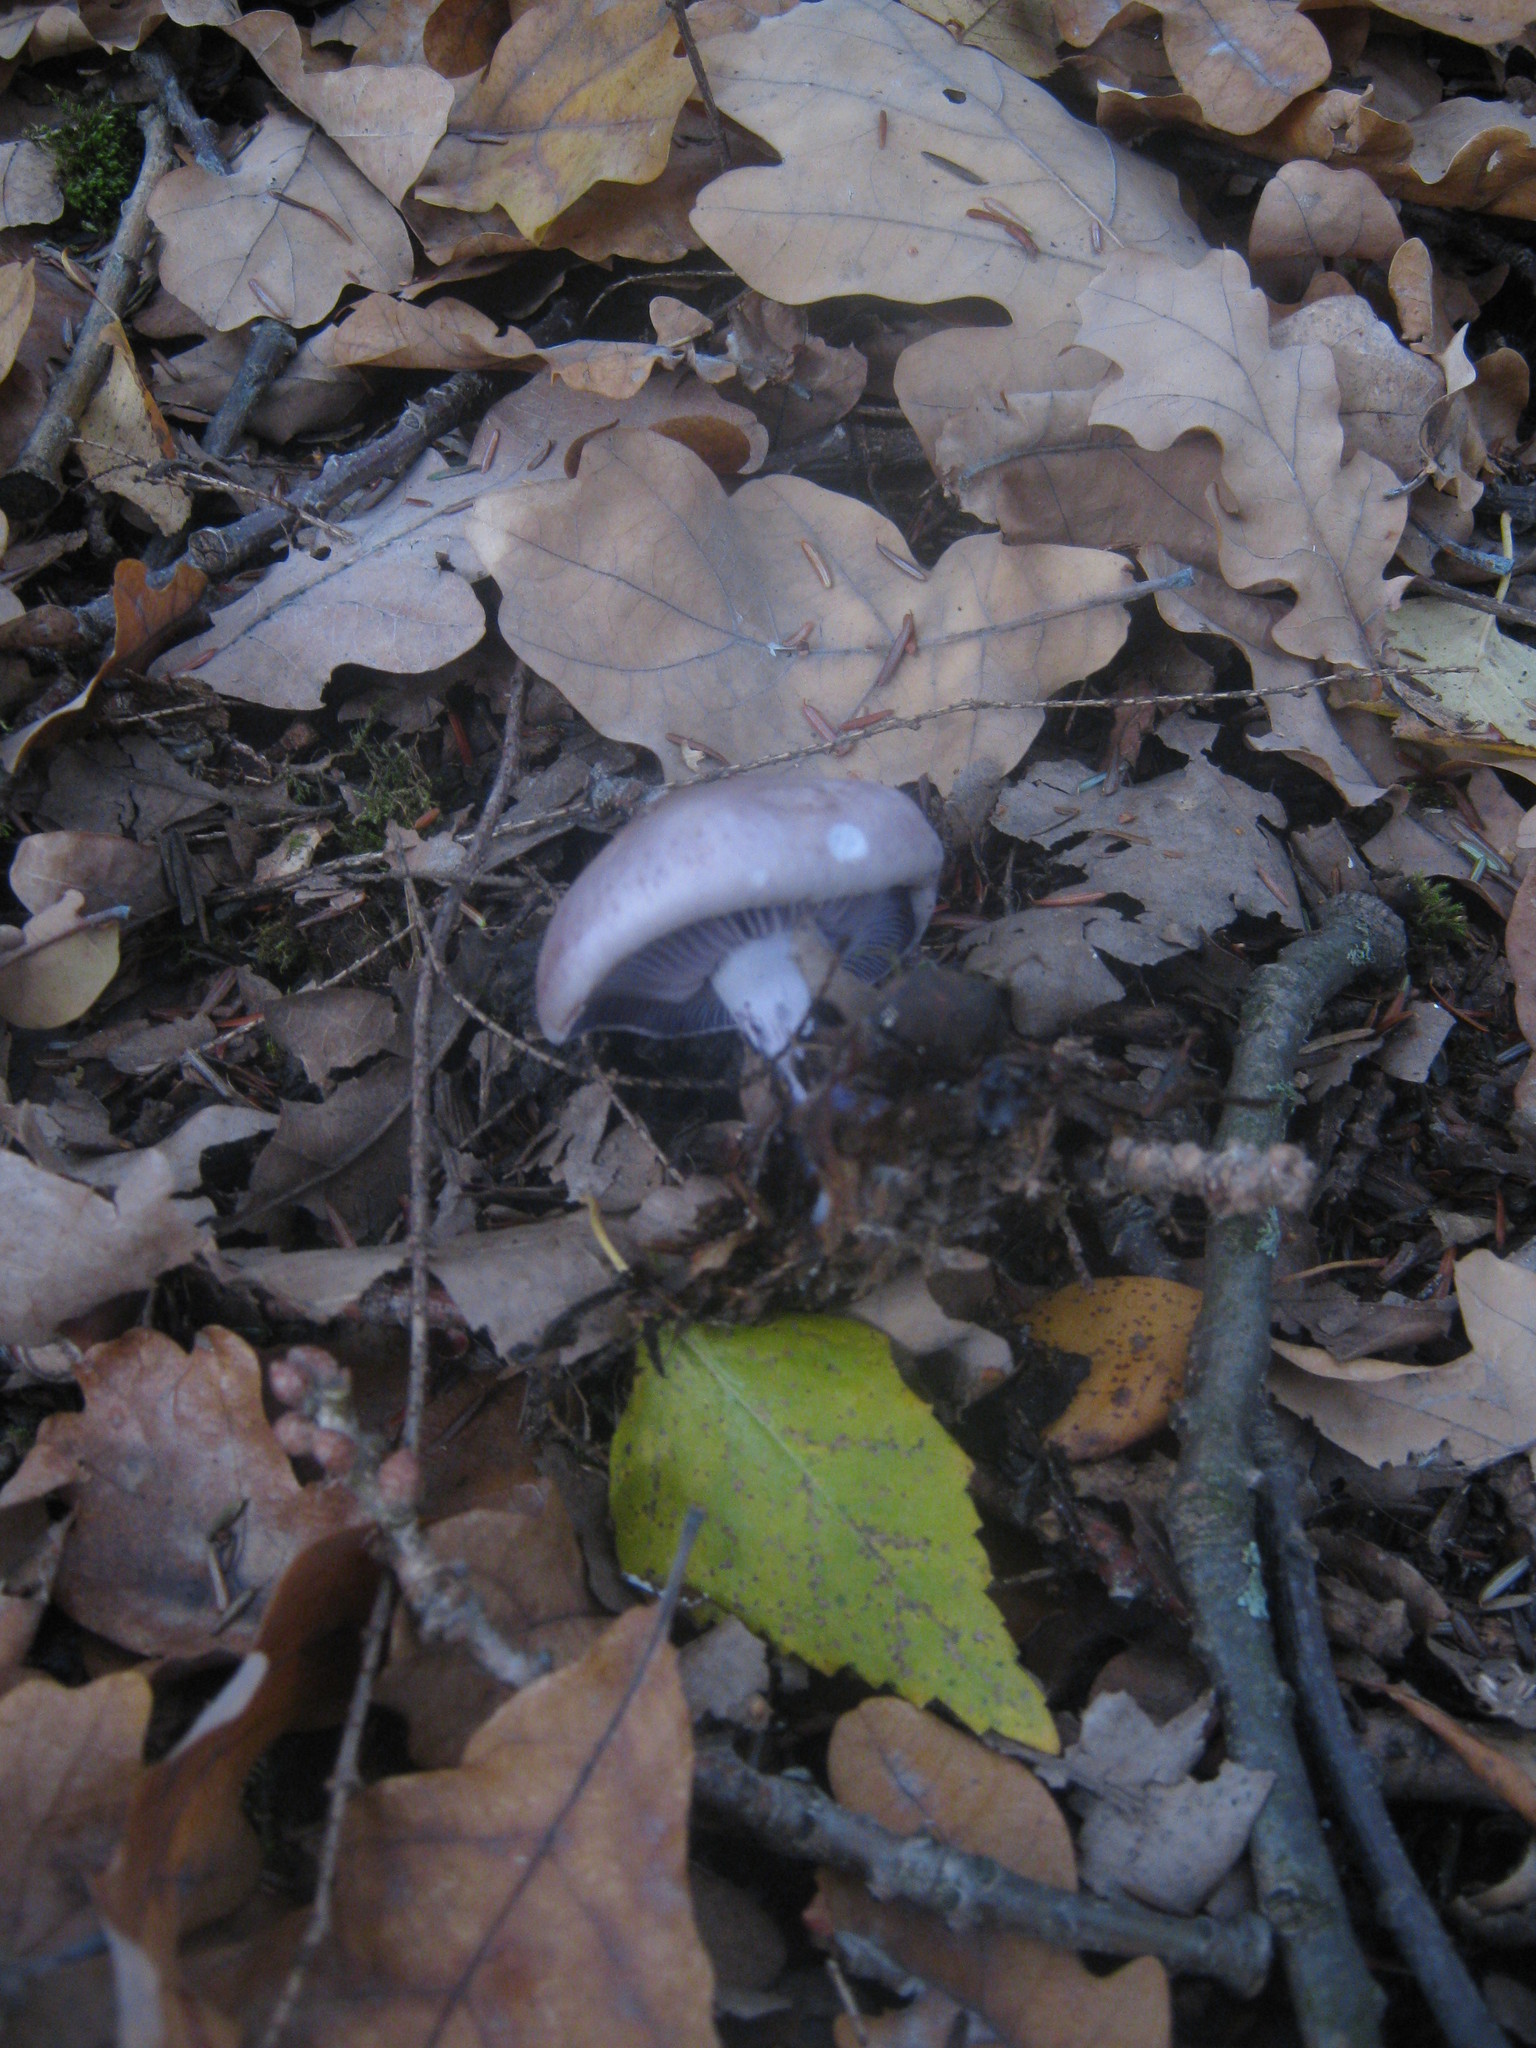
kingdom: Fungi
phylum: Basidiomycota
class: Agaricomycetes
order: Agaricales
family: Tricholomataceae
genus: Collybia
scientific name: Collybia
